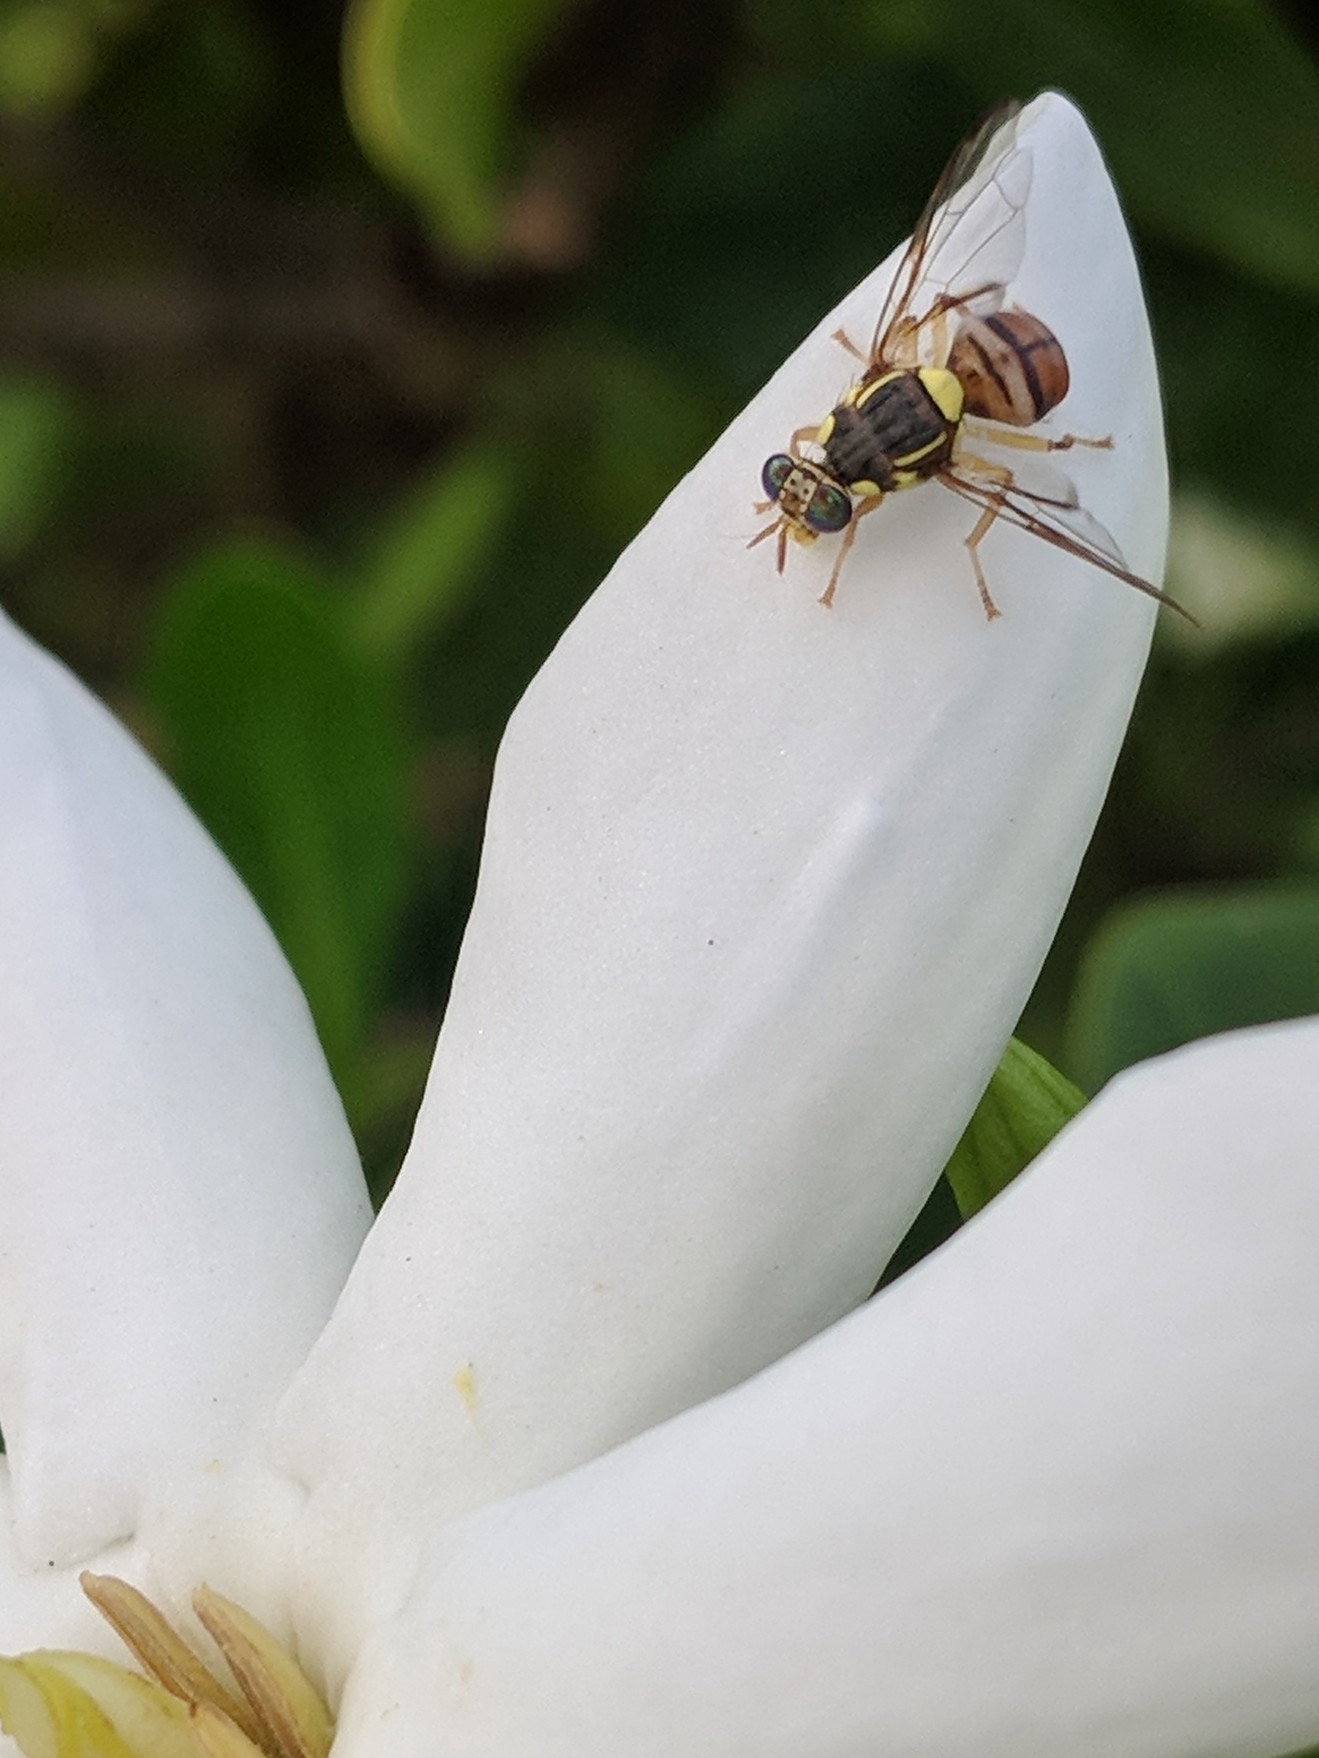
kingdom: Animalia
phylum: Arthropoda
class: Insecta
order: Diptera
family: Tephritidae
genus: Bactrocera
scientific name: Bactrocera dorsalis
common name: Oriental fruit fly
